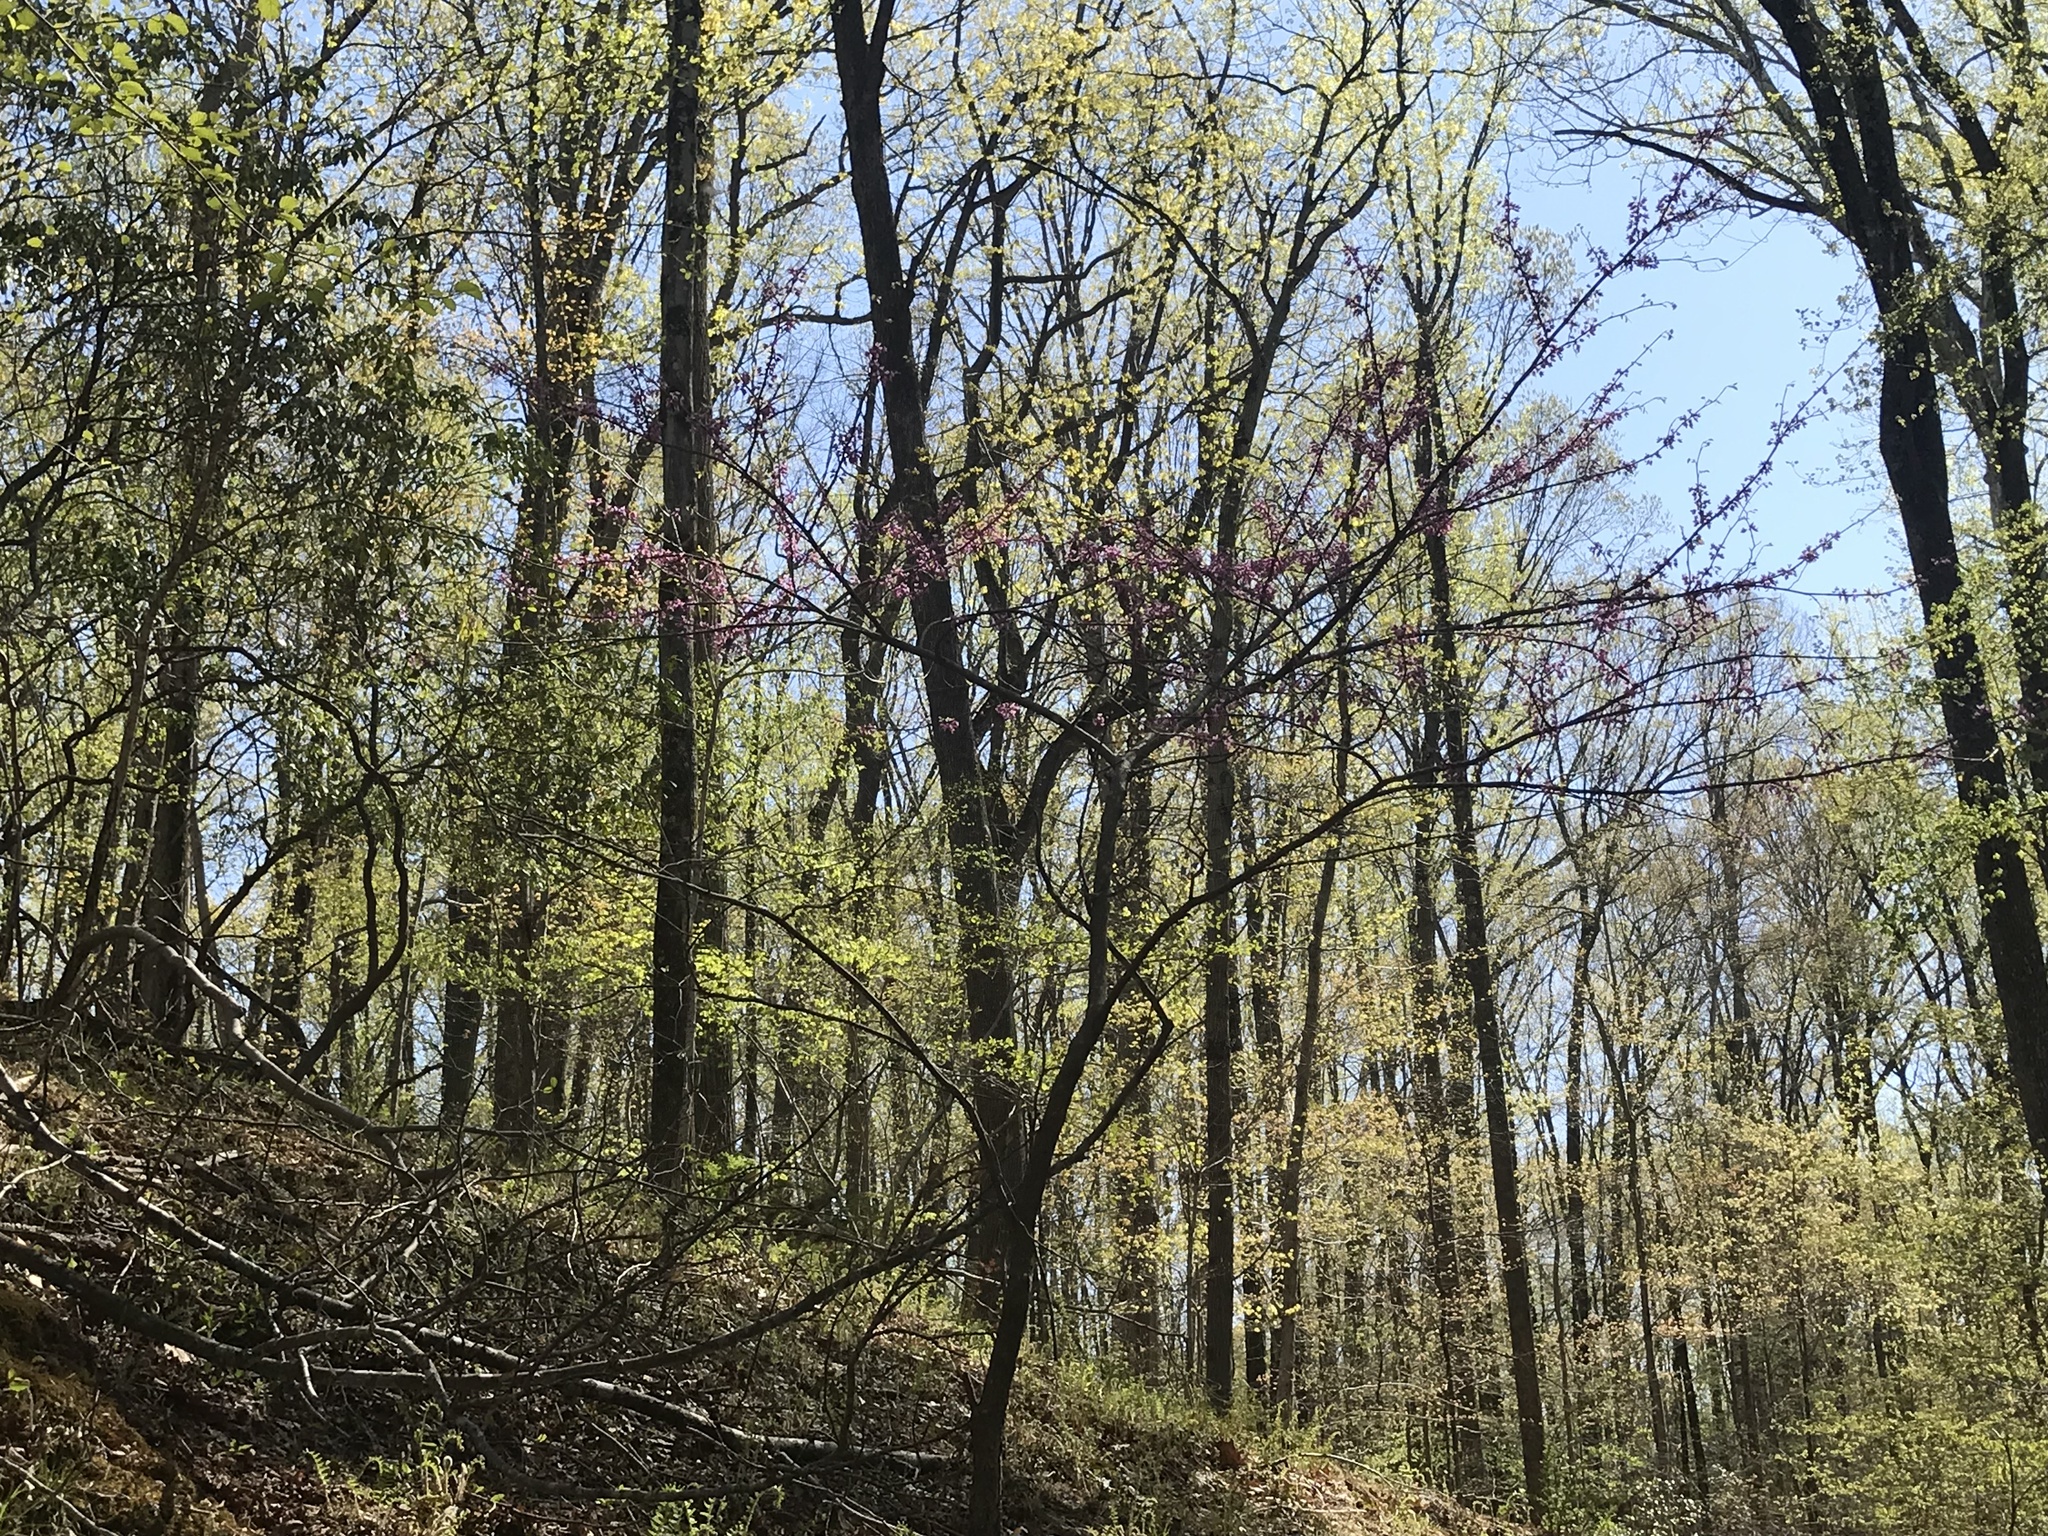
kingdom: Plantae
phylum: Tracheophyta
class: Magnoliopsida
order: Fabales
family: Fabaceae
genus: Cercis
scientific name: Cercis canadensis
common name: Eastern redbud
